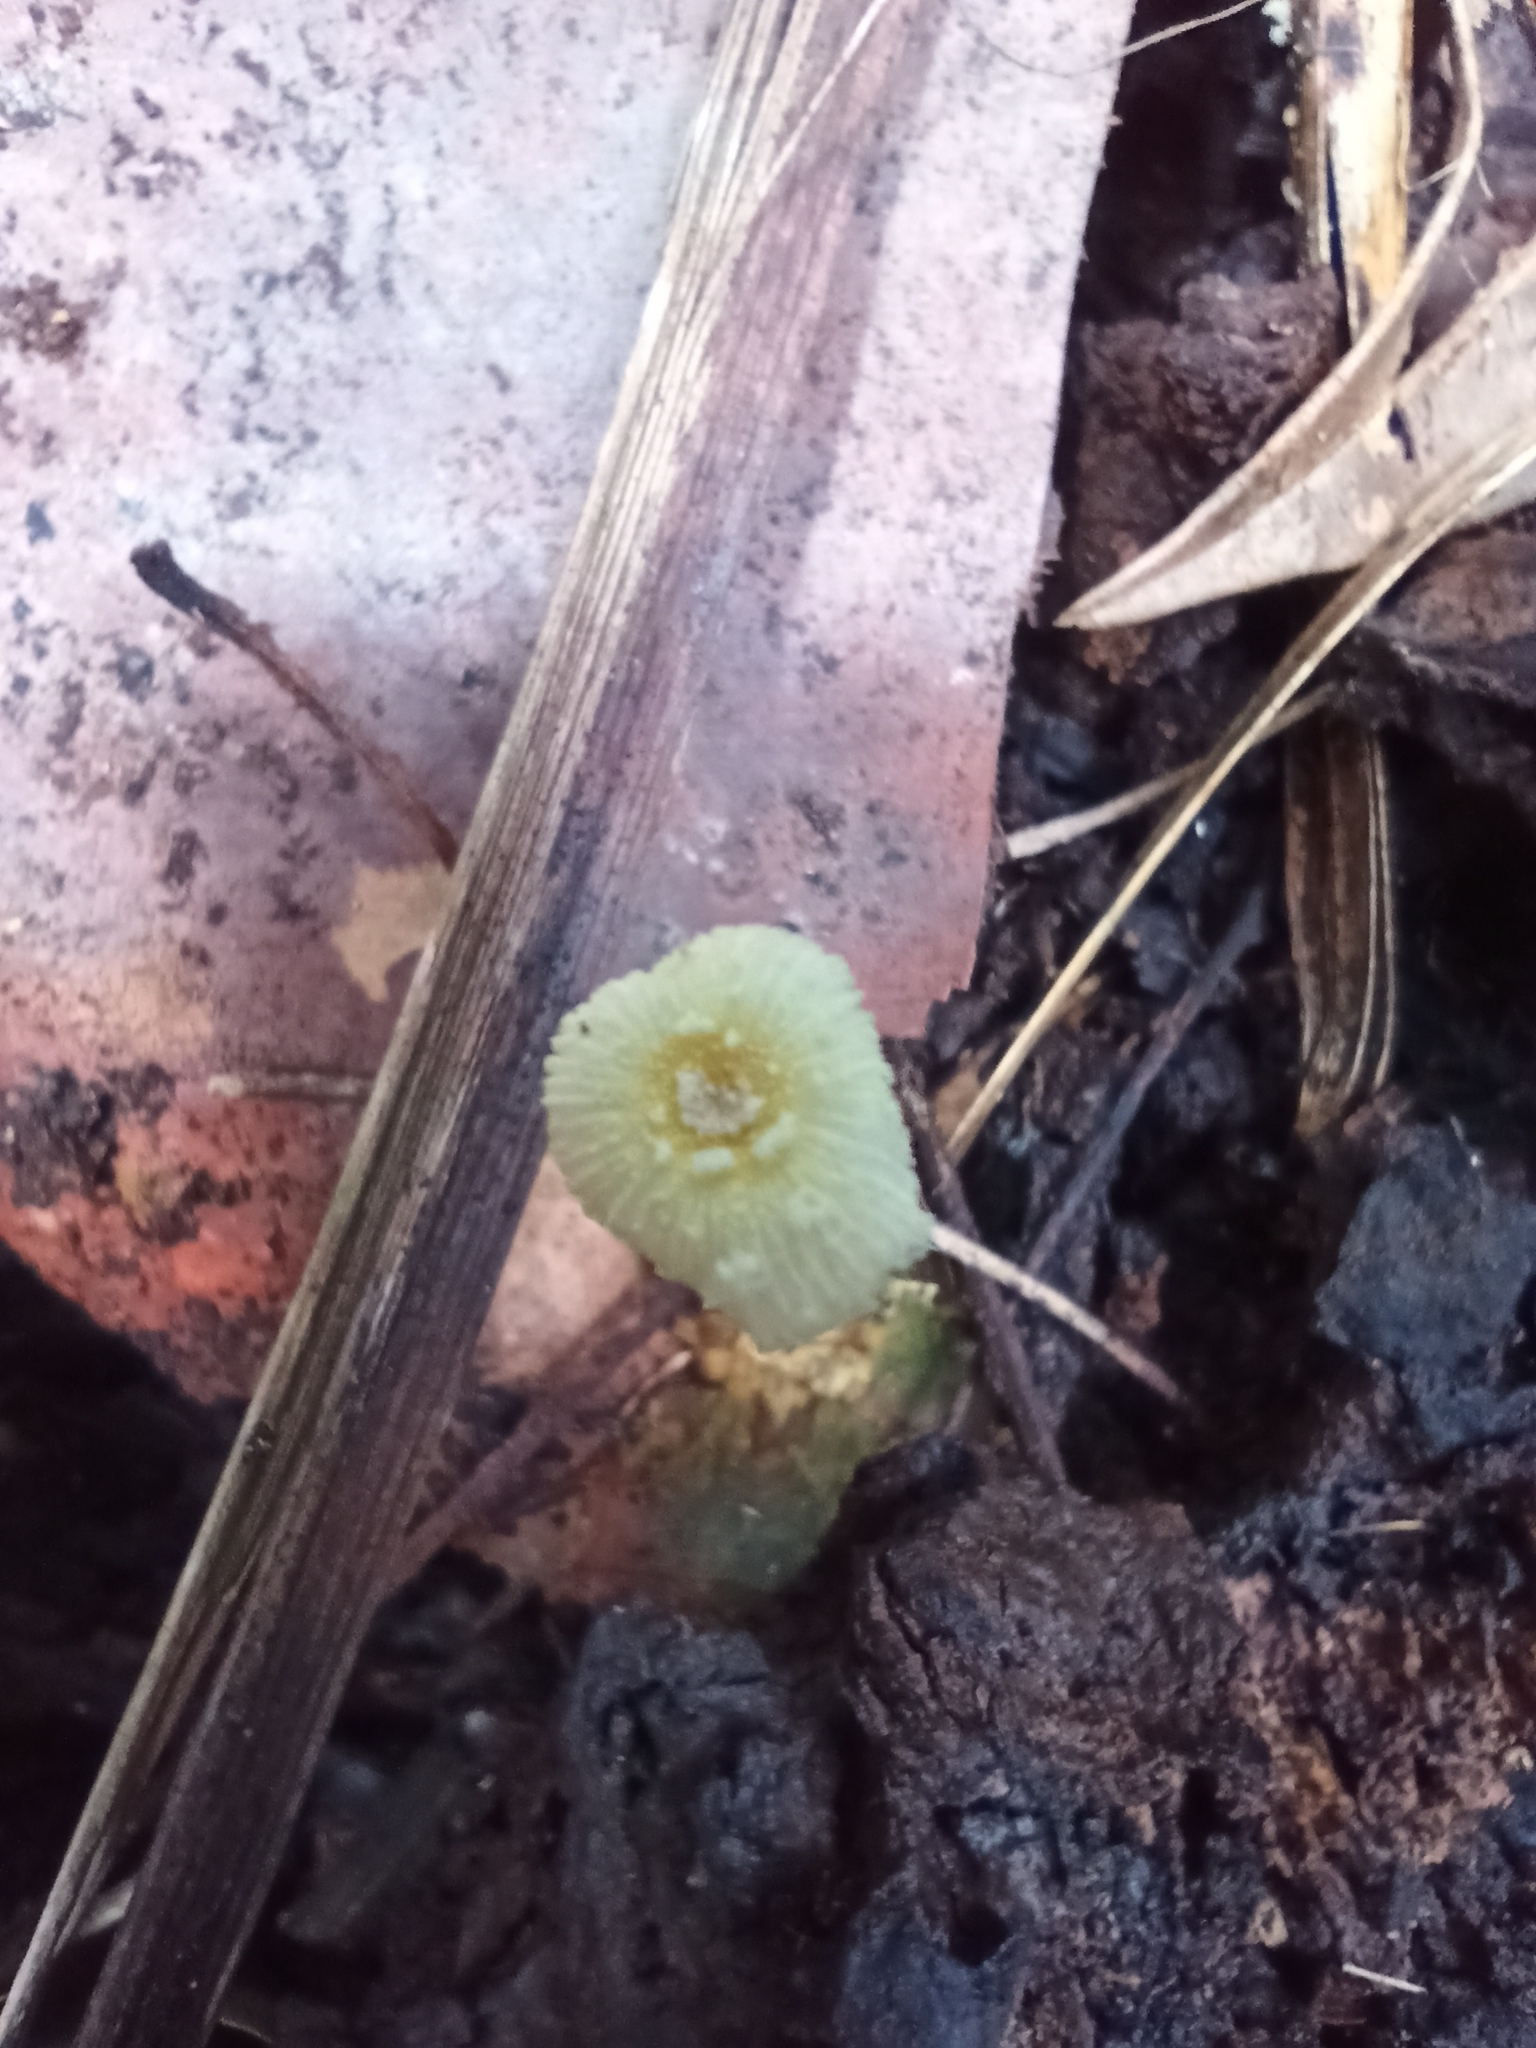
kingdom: Fungi
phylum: Basidiomycota
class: Agaricomycetes
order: Agaricales
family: Agaricaceae
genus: Leucocoprinus
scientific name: Leucocoprinus fragilissimus
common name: Fragile dapperling
